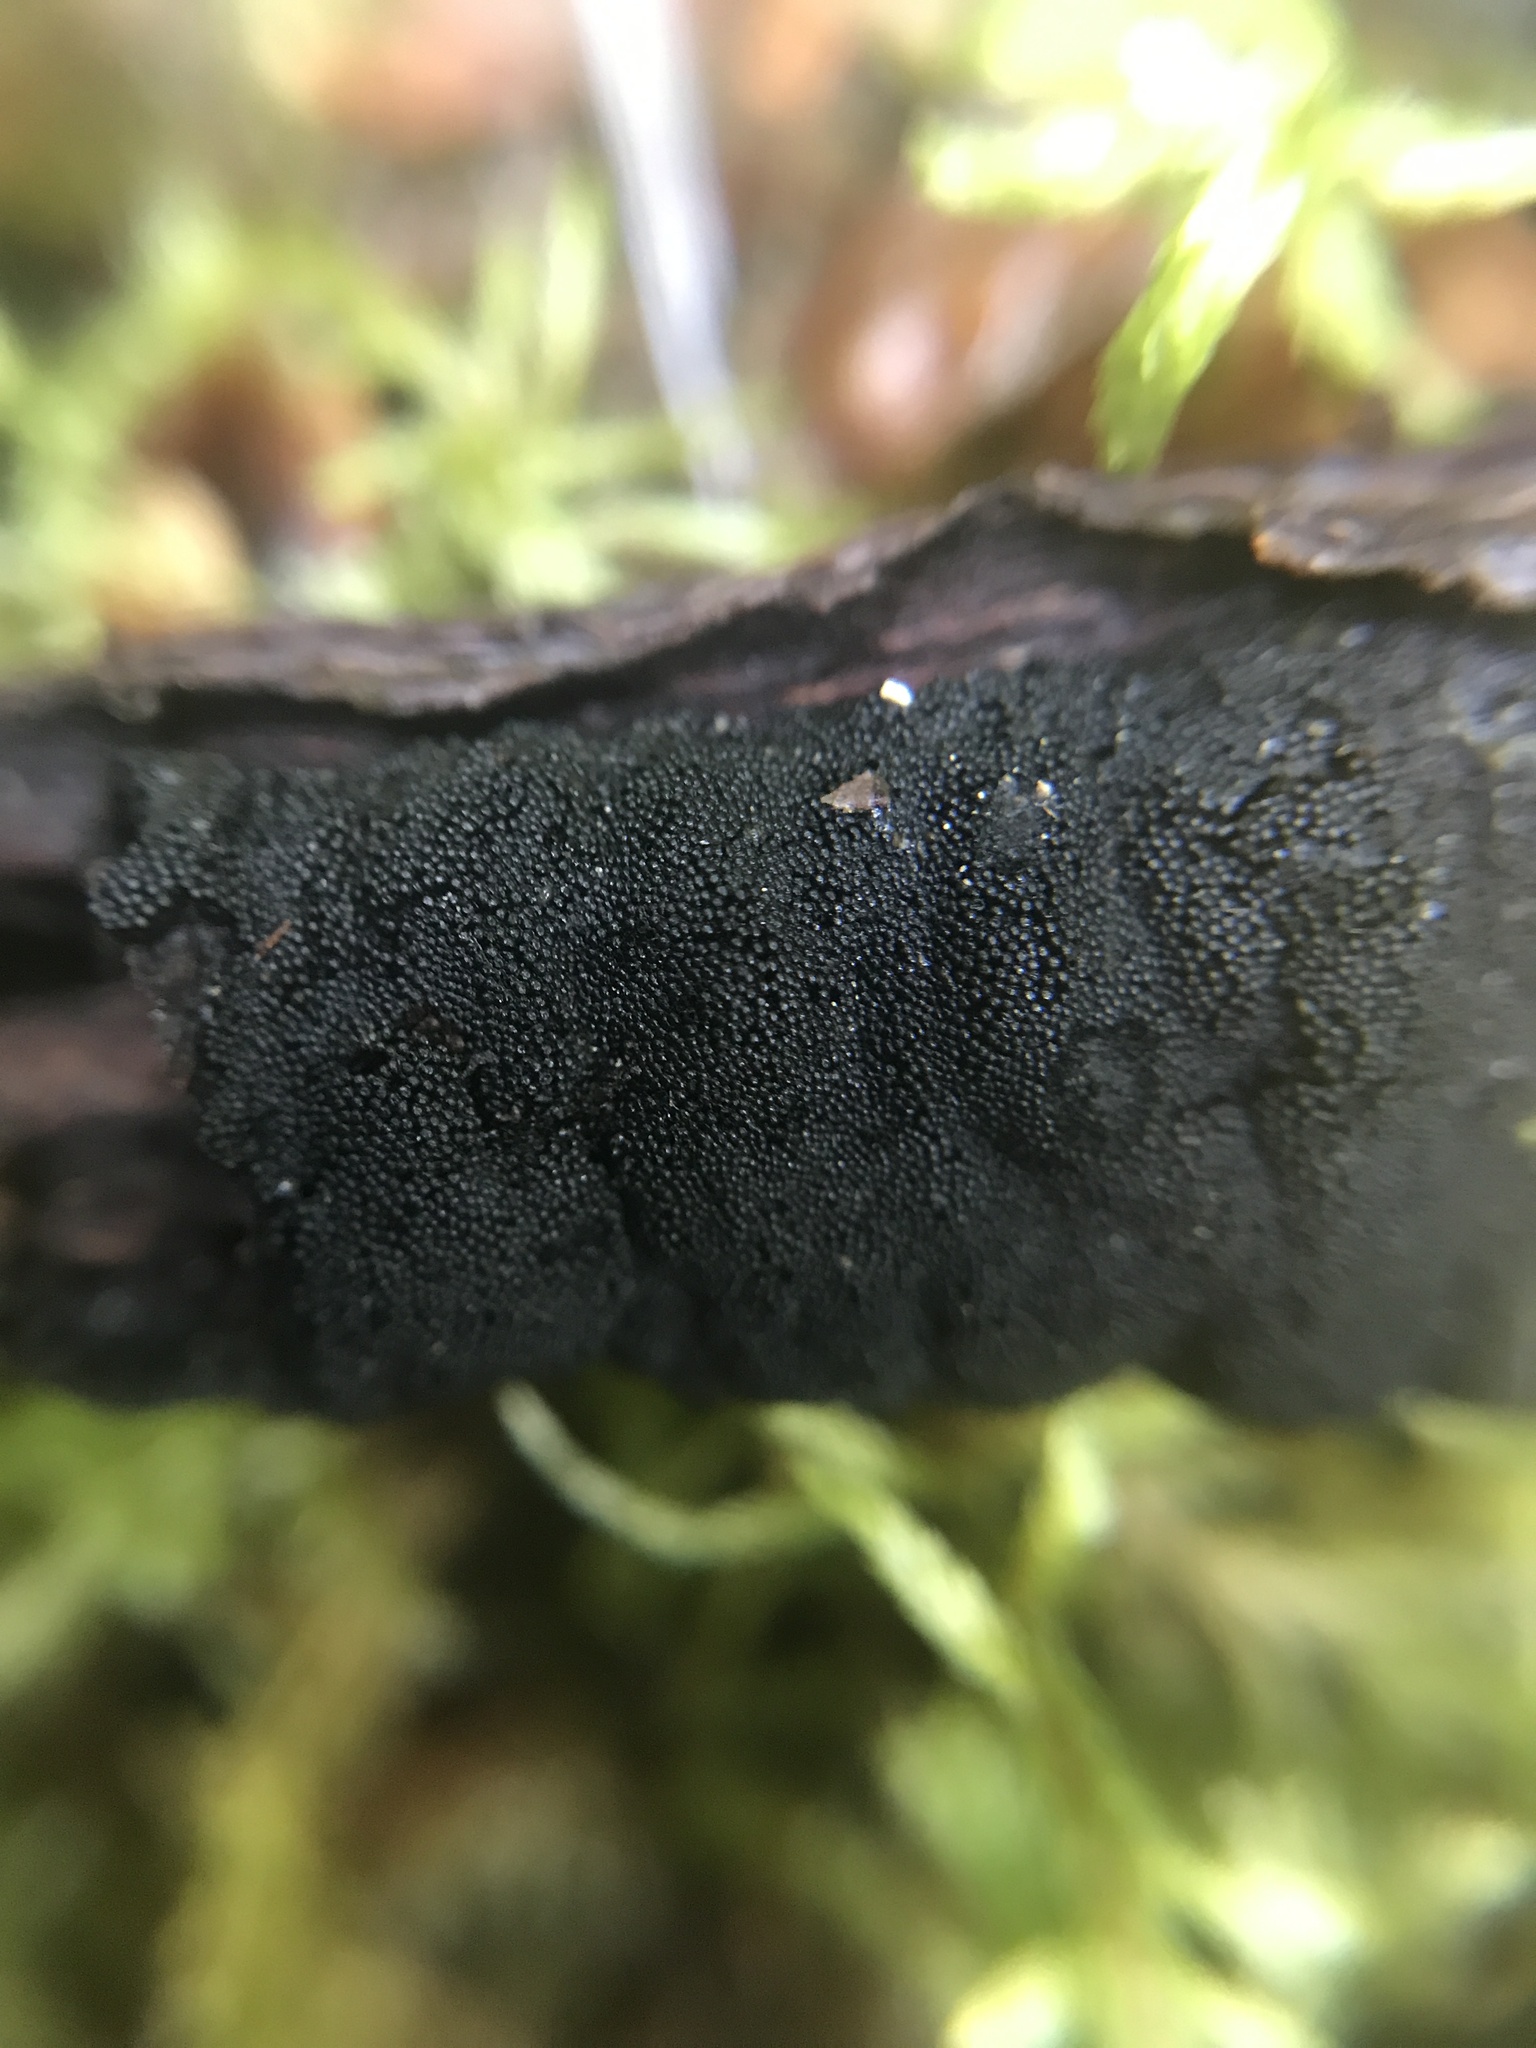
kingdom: Fungi
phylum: Ascomycota
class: Dothideomycetes
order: Venturiales
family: Venturiaceae
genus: Apiosporina
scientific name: Apiosporina morbosa
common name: Black knot
